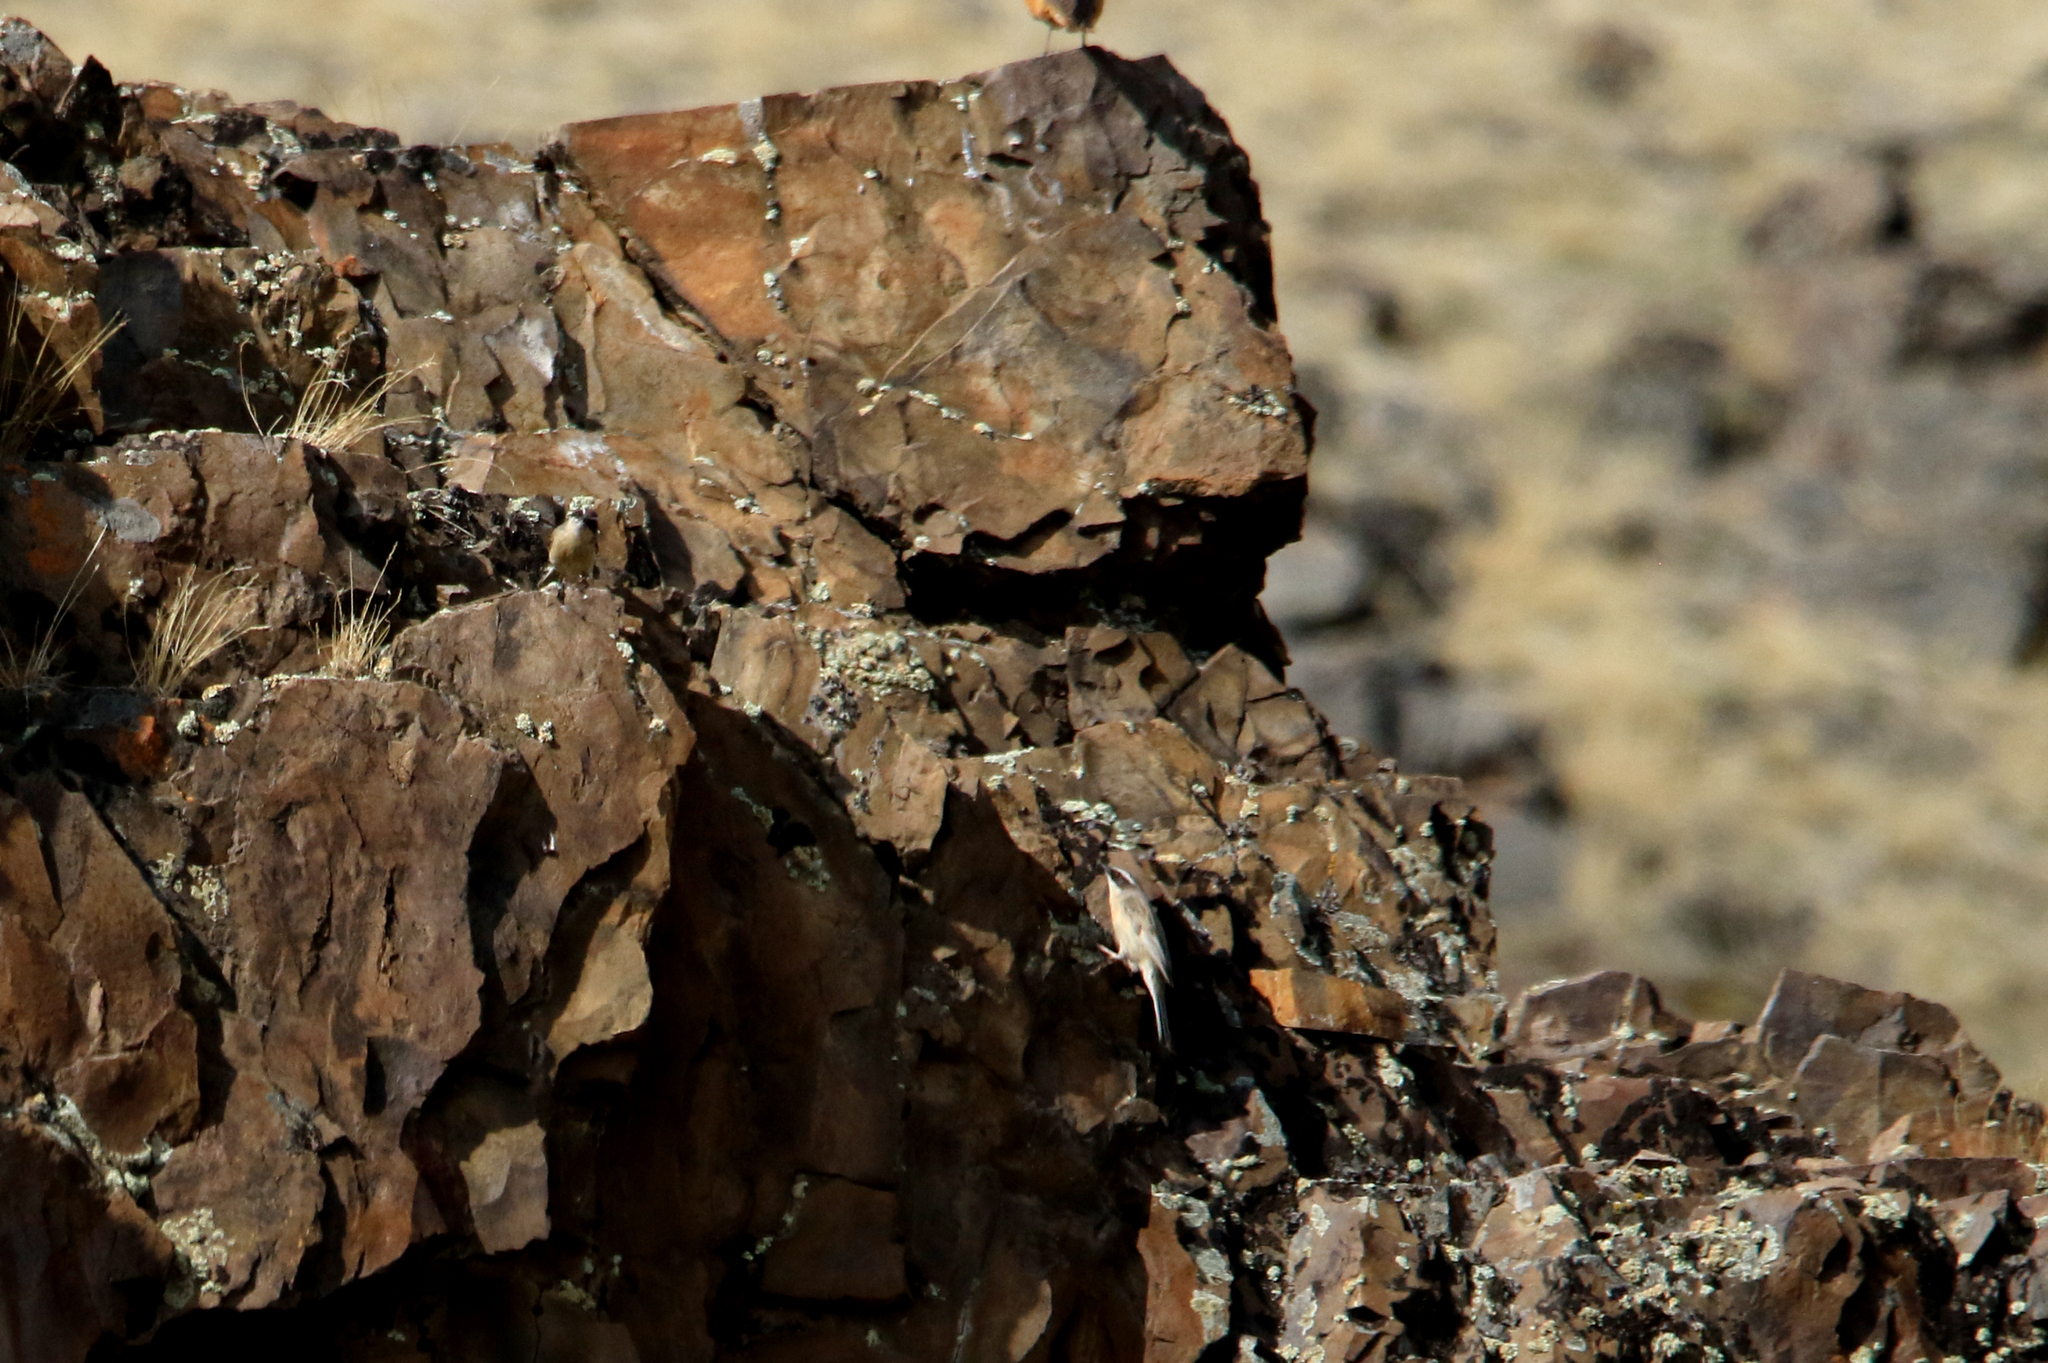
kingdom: Animalia
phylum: Chordata
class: Aves
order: Passeriformes
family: Prunellidae
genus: Prunella
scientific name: Prunella fulvescens
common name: Brown accentor
